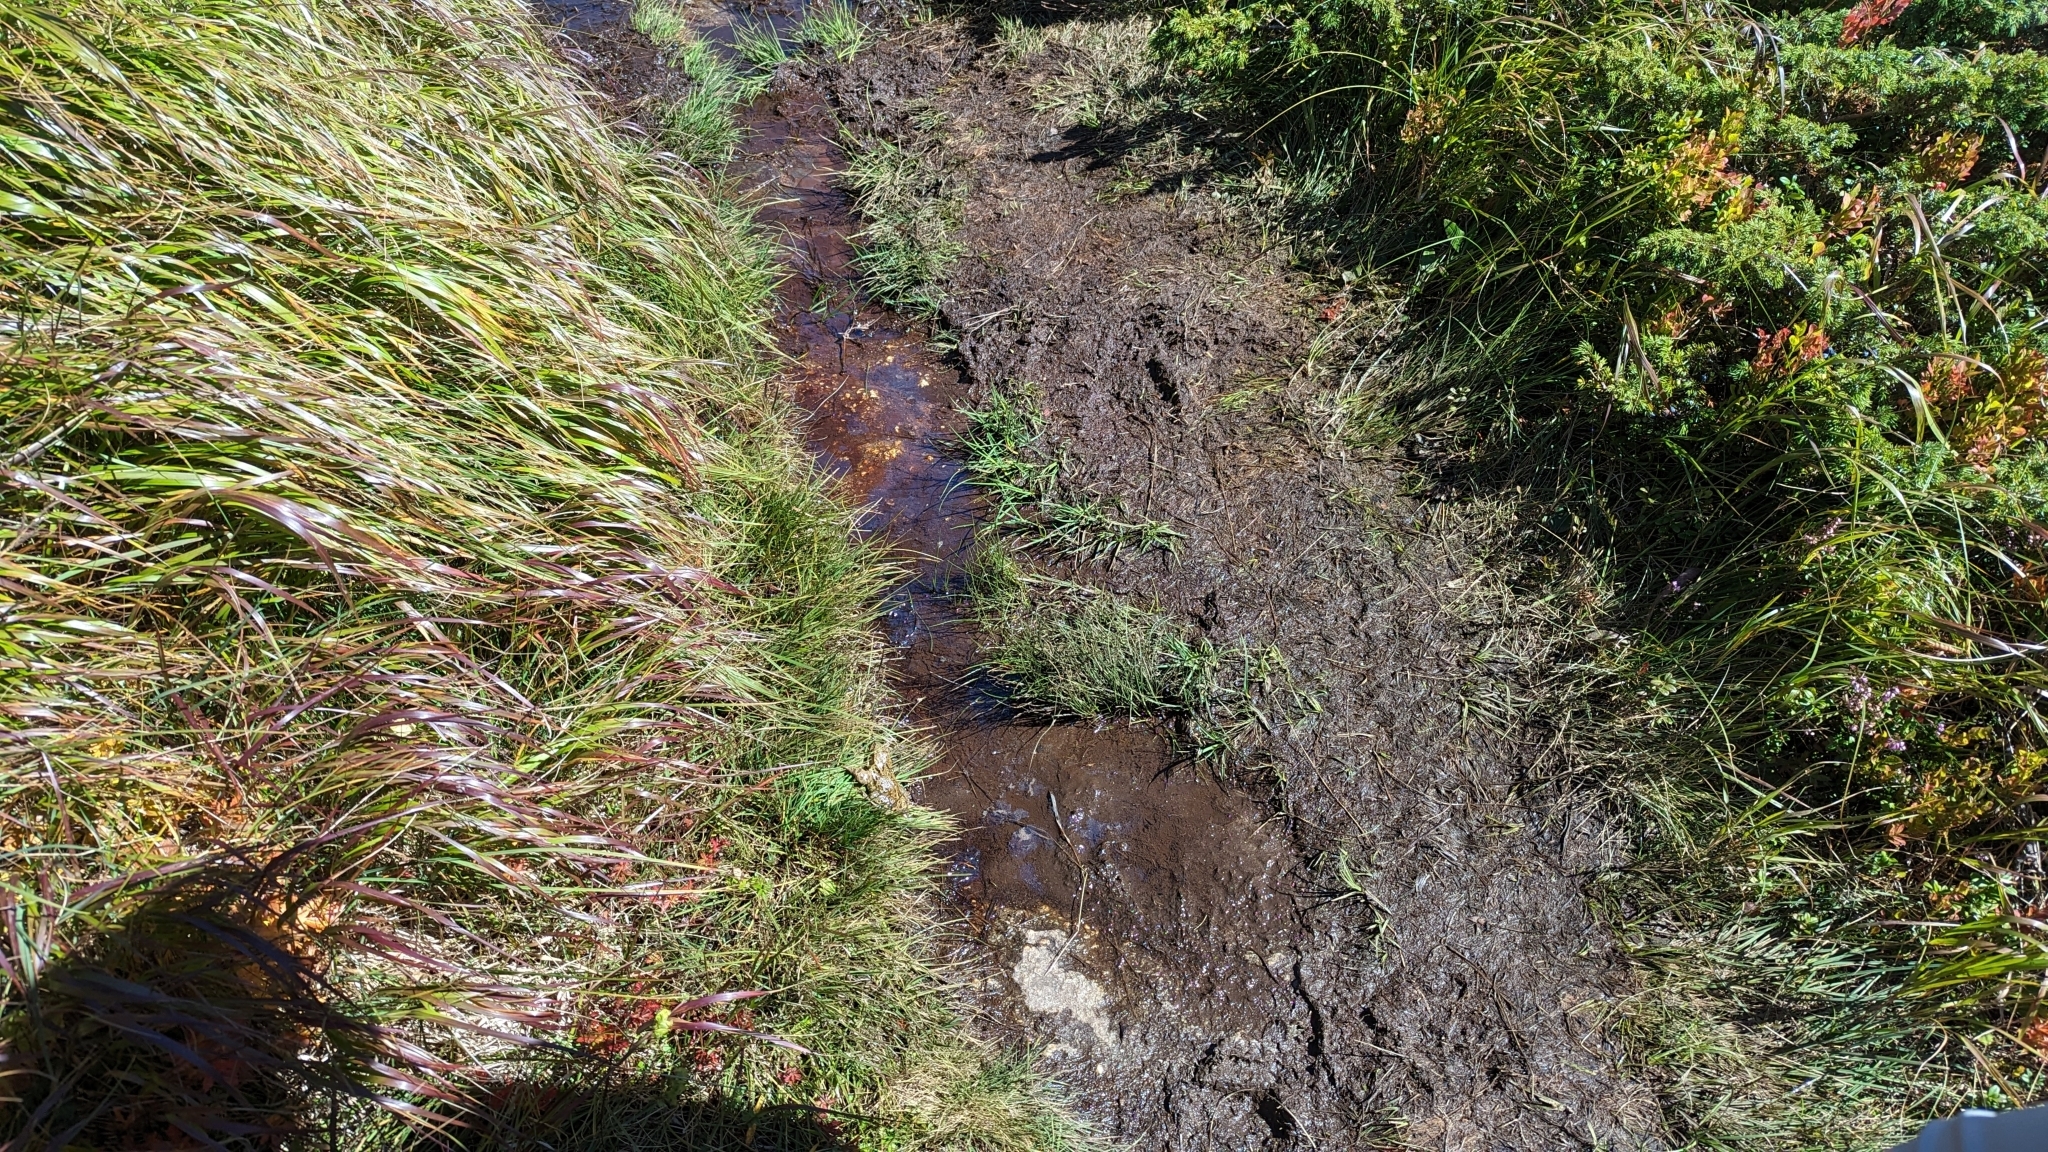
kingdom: Animalia
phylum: Chordata
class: Amphibia
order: Anura
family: Ranidae
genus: Rana
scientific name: Rana temporaria
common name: Common frog
